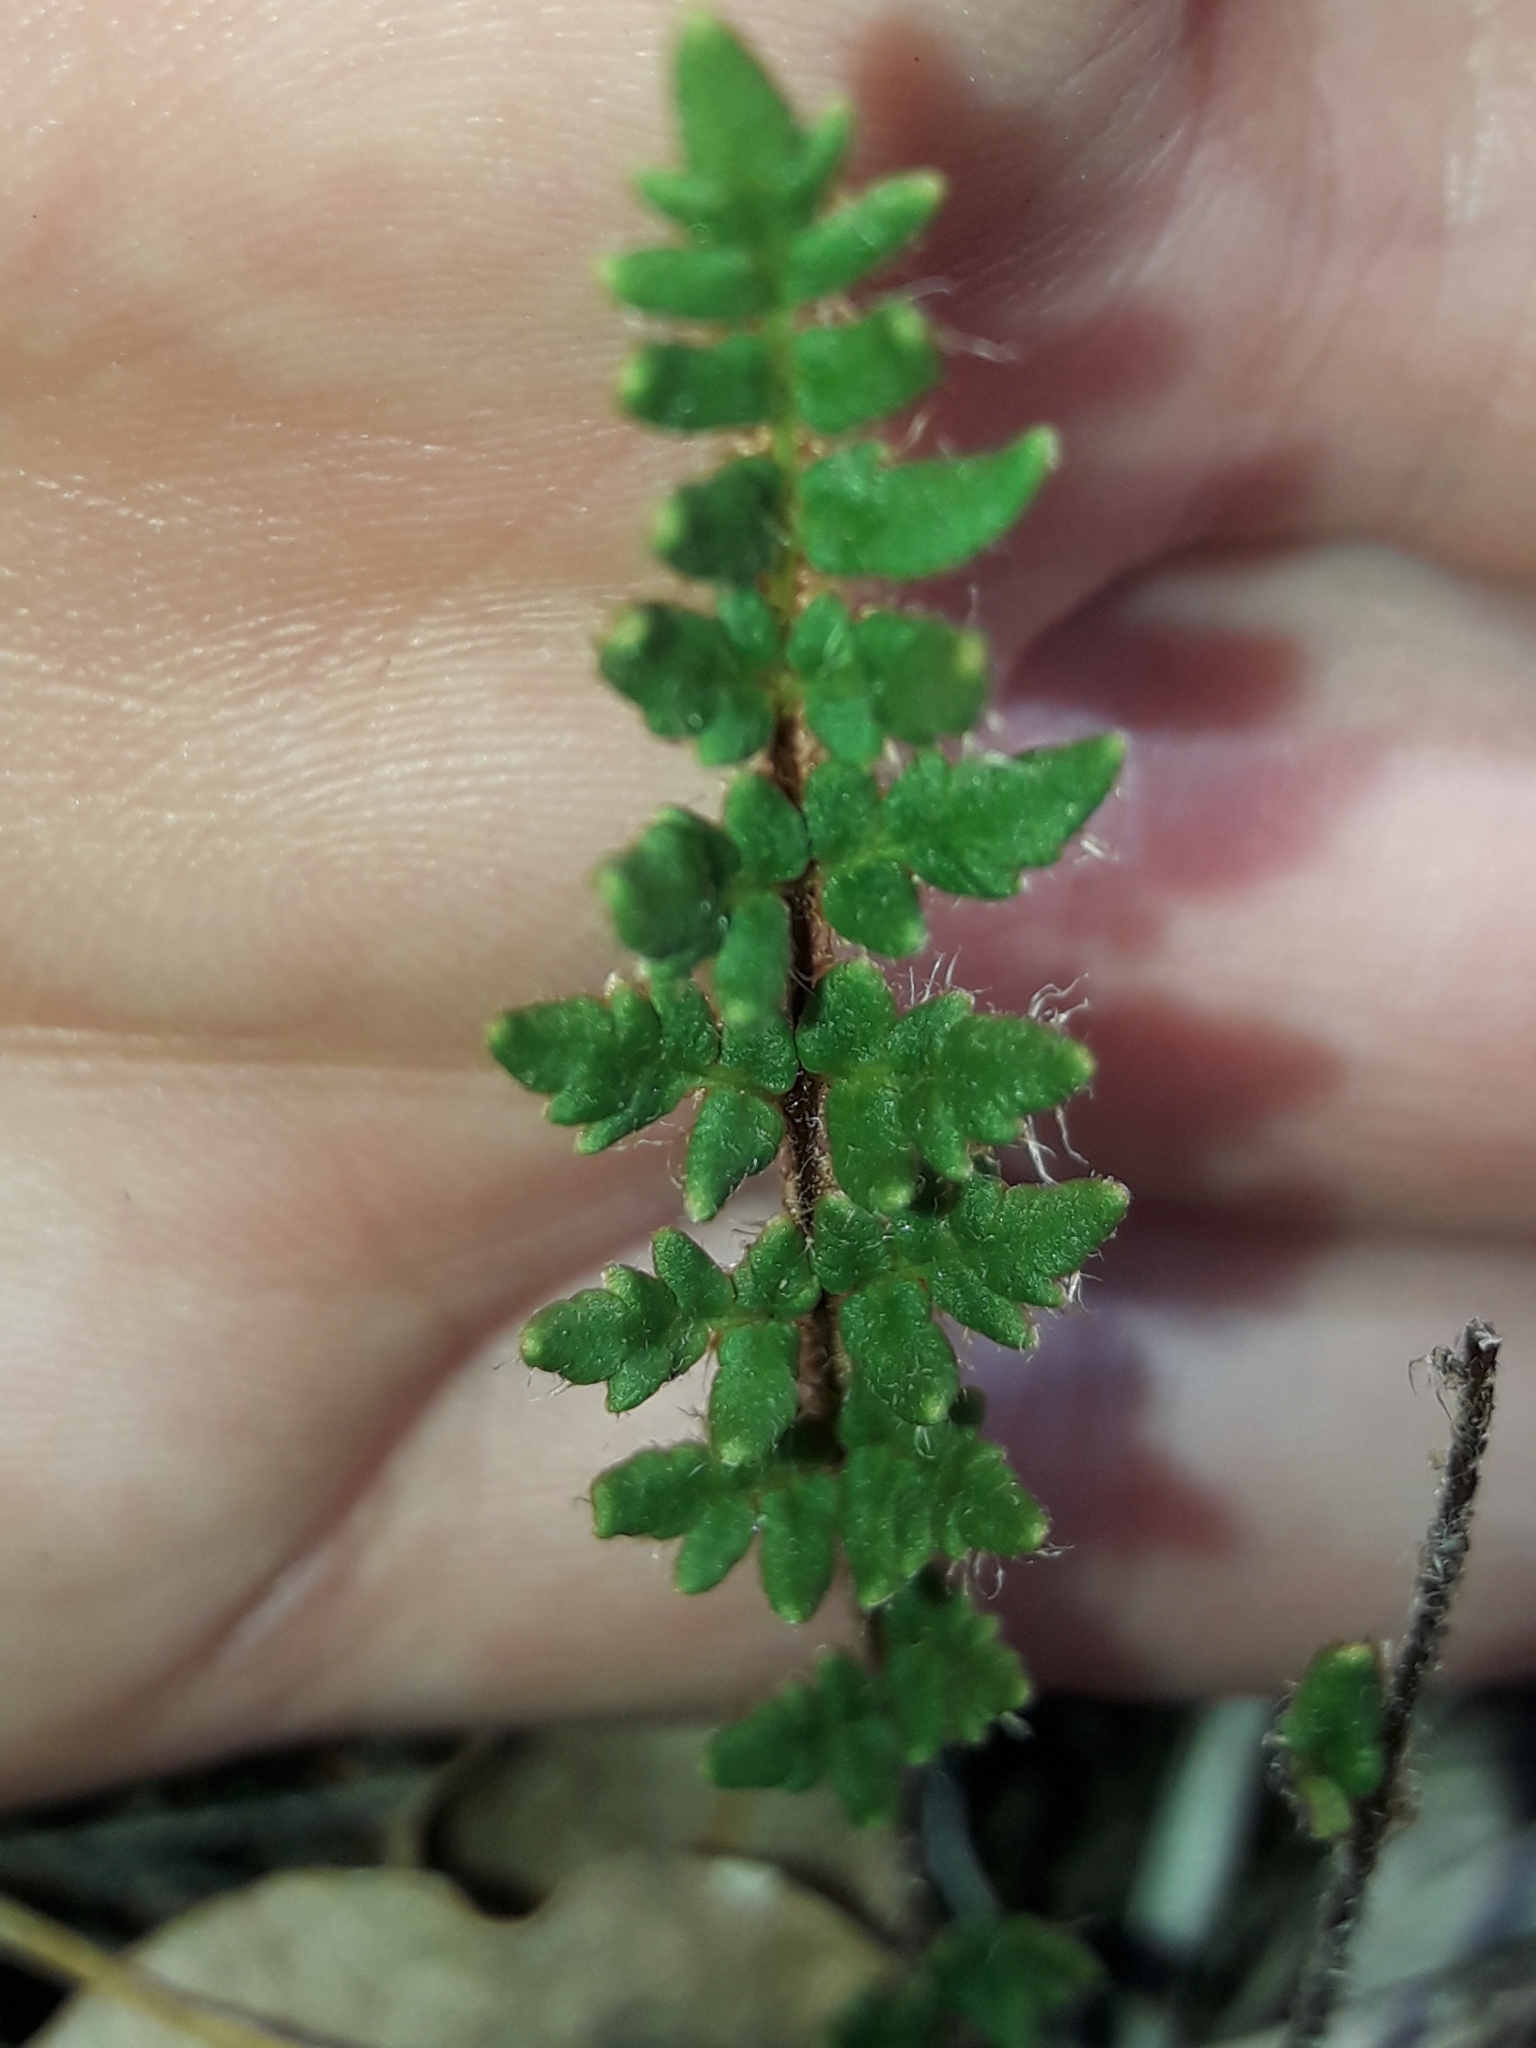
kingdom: Plantae
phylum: Tracheophyta
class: Polypodiopsida
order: Polypodiales
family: Pteridaceae
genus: Cheilanthes
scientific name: Cheilanthes distans
